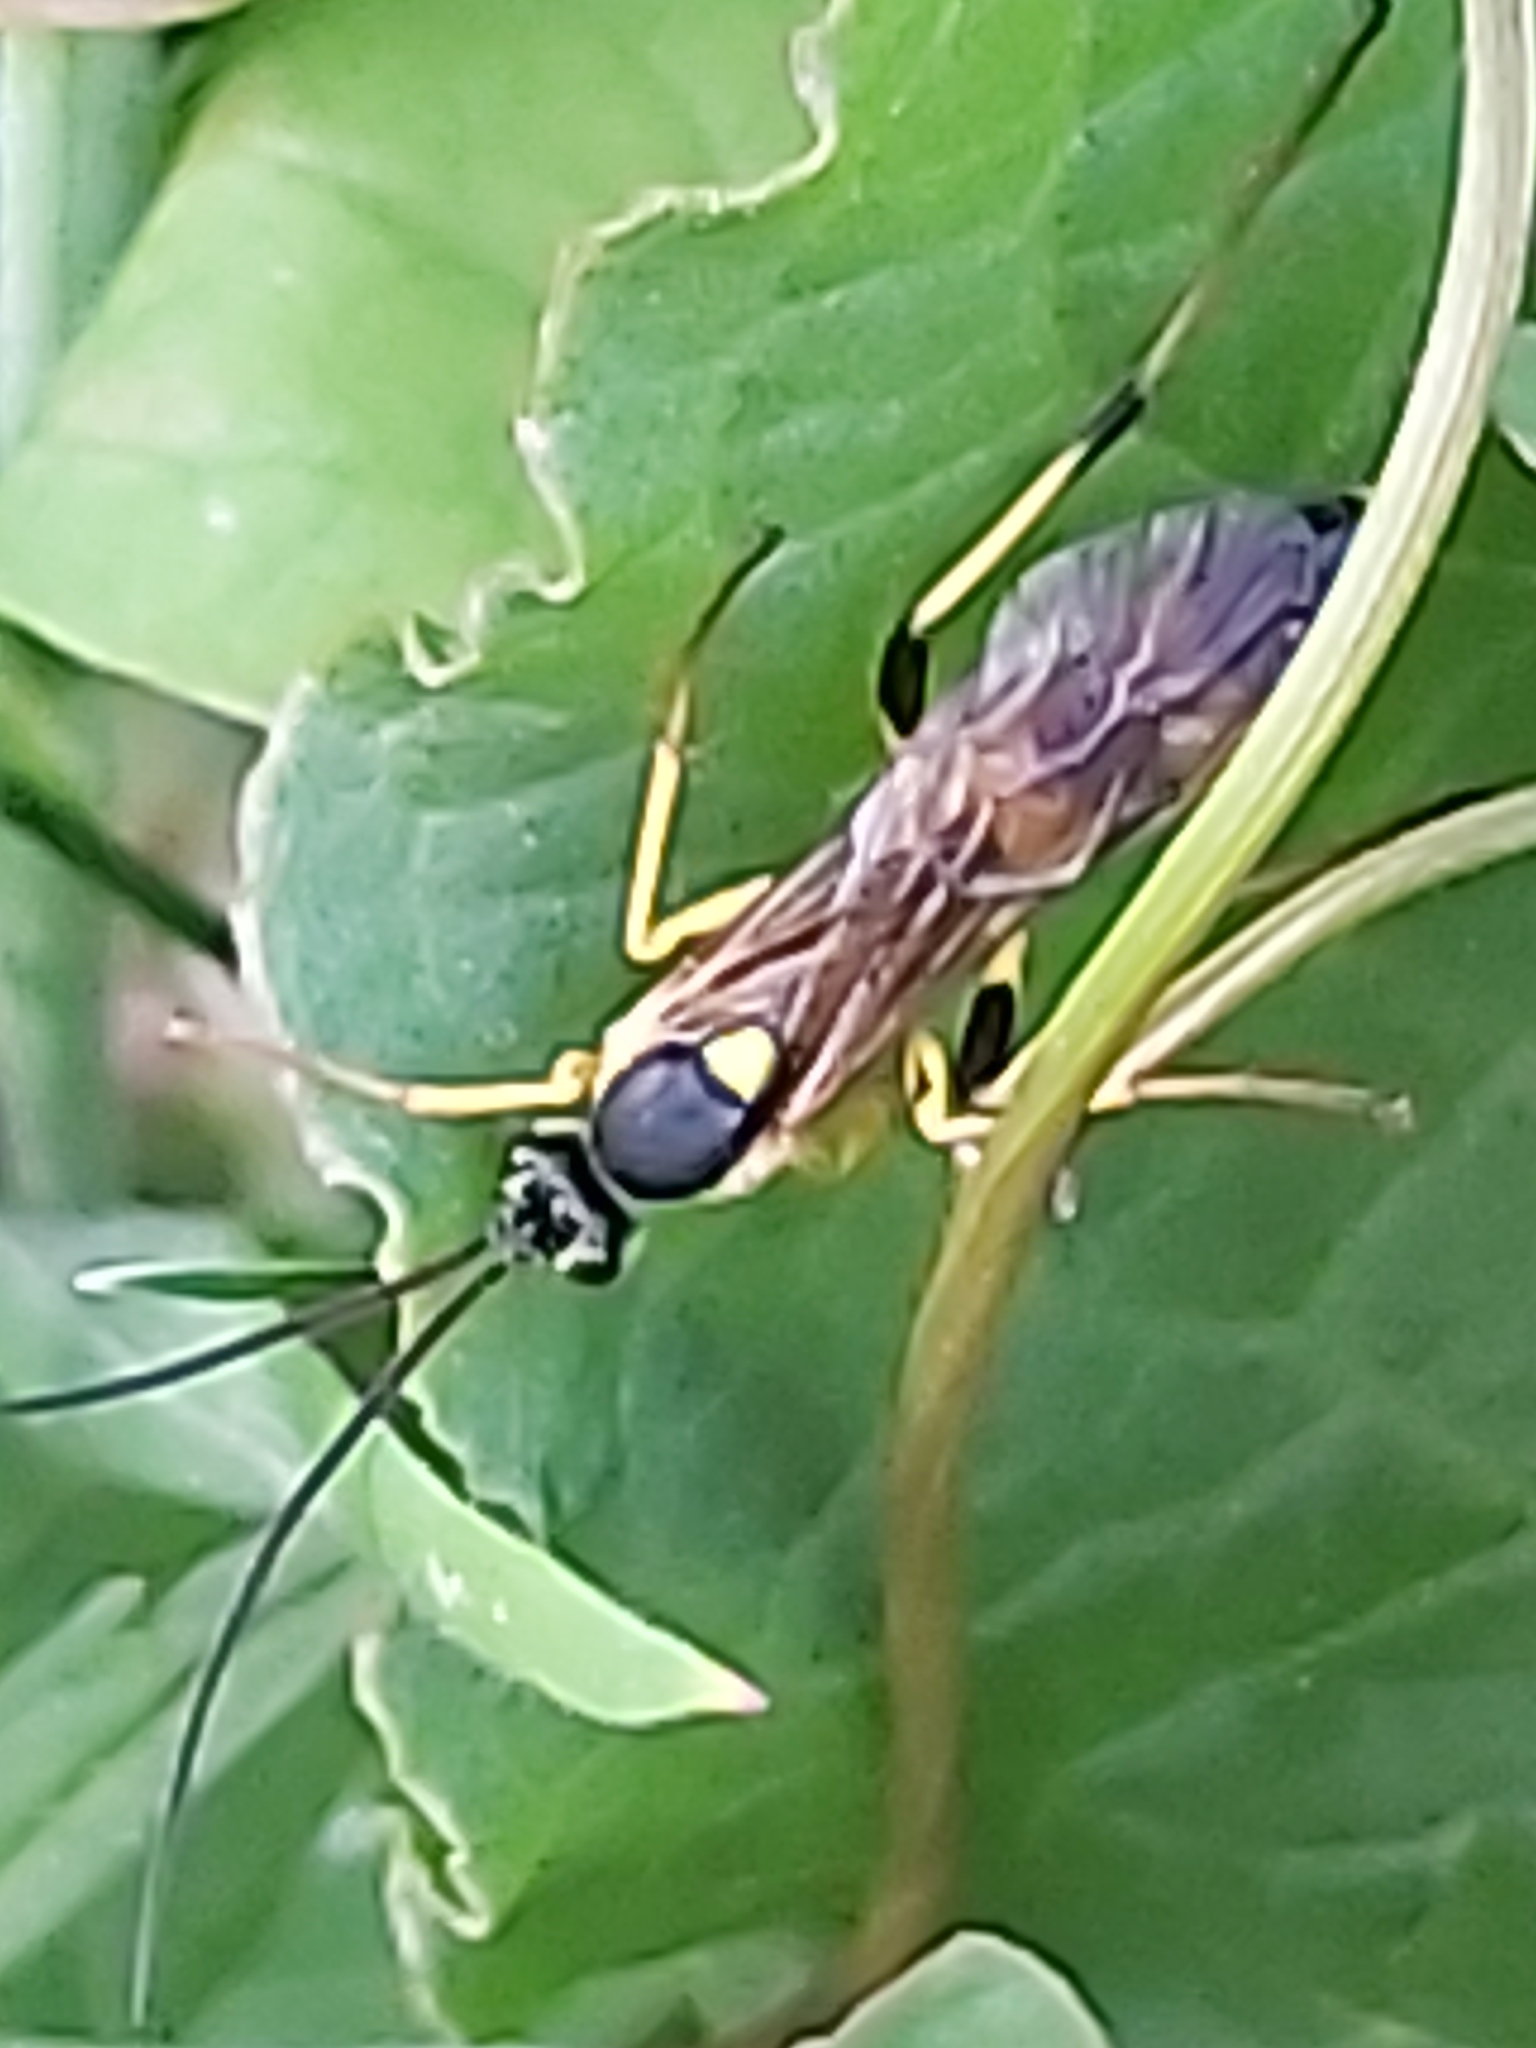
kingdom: Animalia
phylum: Arthropoda
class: Insecta
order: Hymenoptera
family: Ichneumonidae
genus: Amblyteles
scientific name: Amblyteles armatorius
